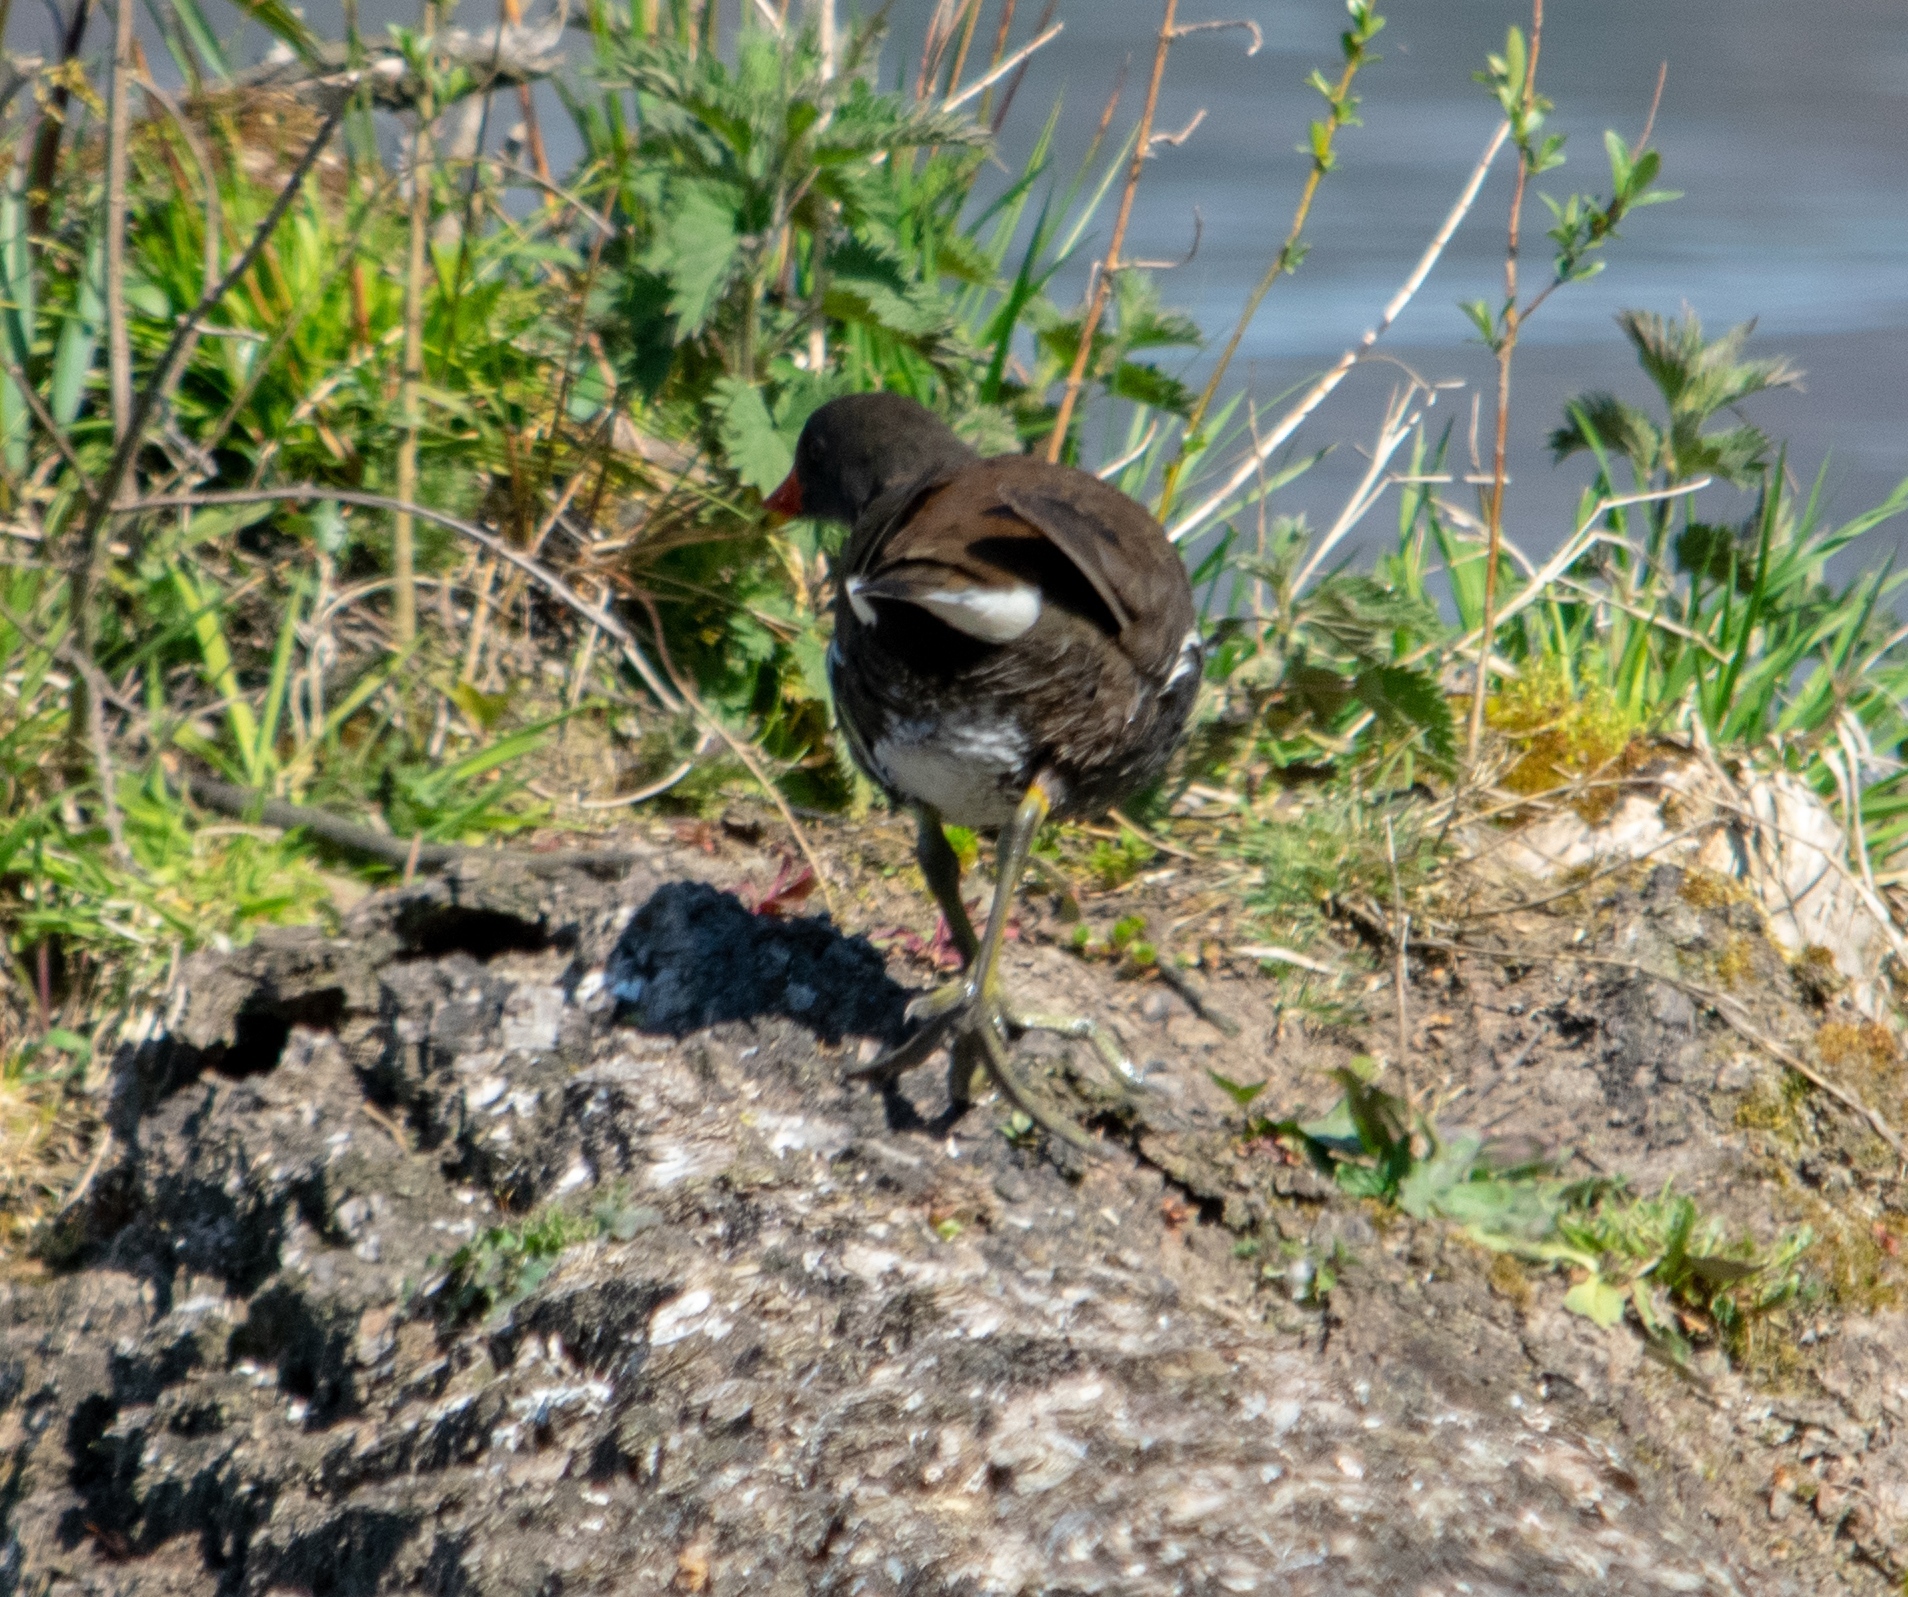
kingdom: Animalia
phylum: Chordata
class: Aves
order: Gruiformes
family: Rallidae
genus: Gallinula
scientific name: Gallinula chloropus
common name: Common moorhen
